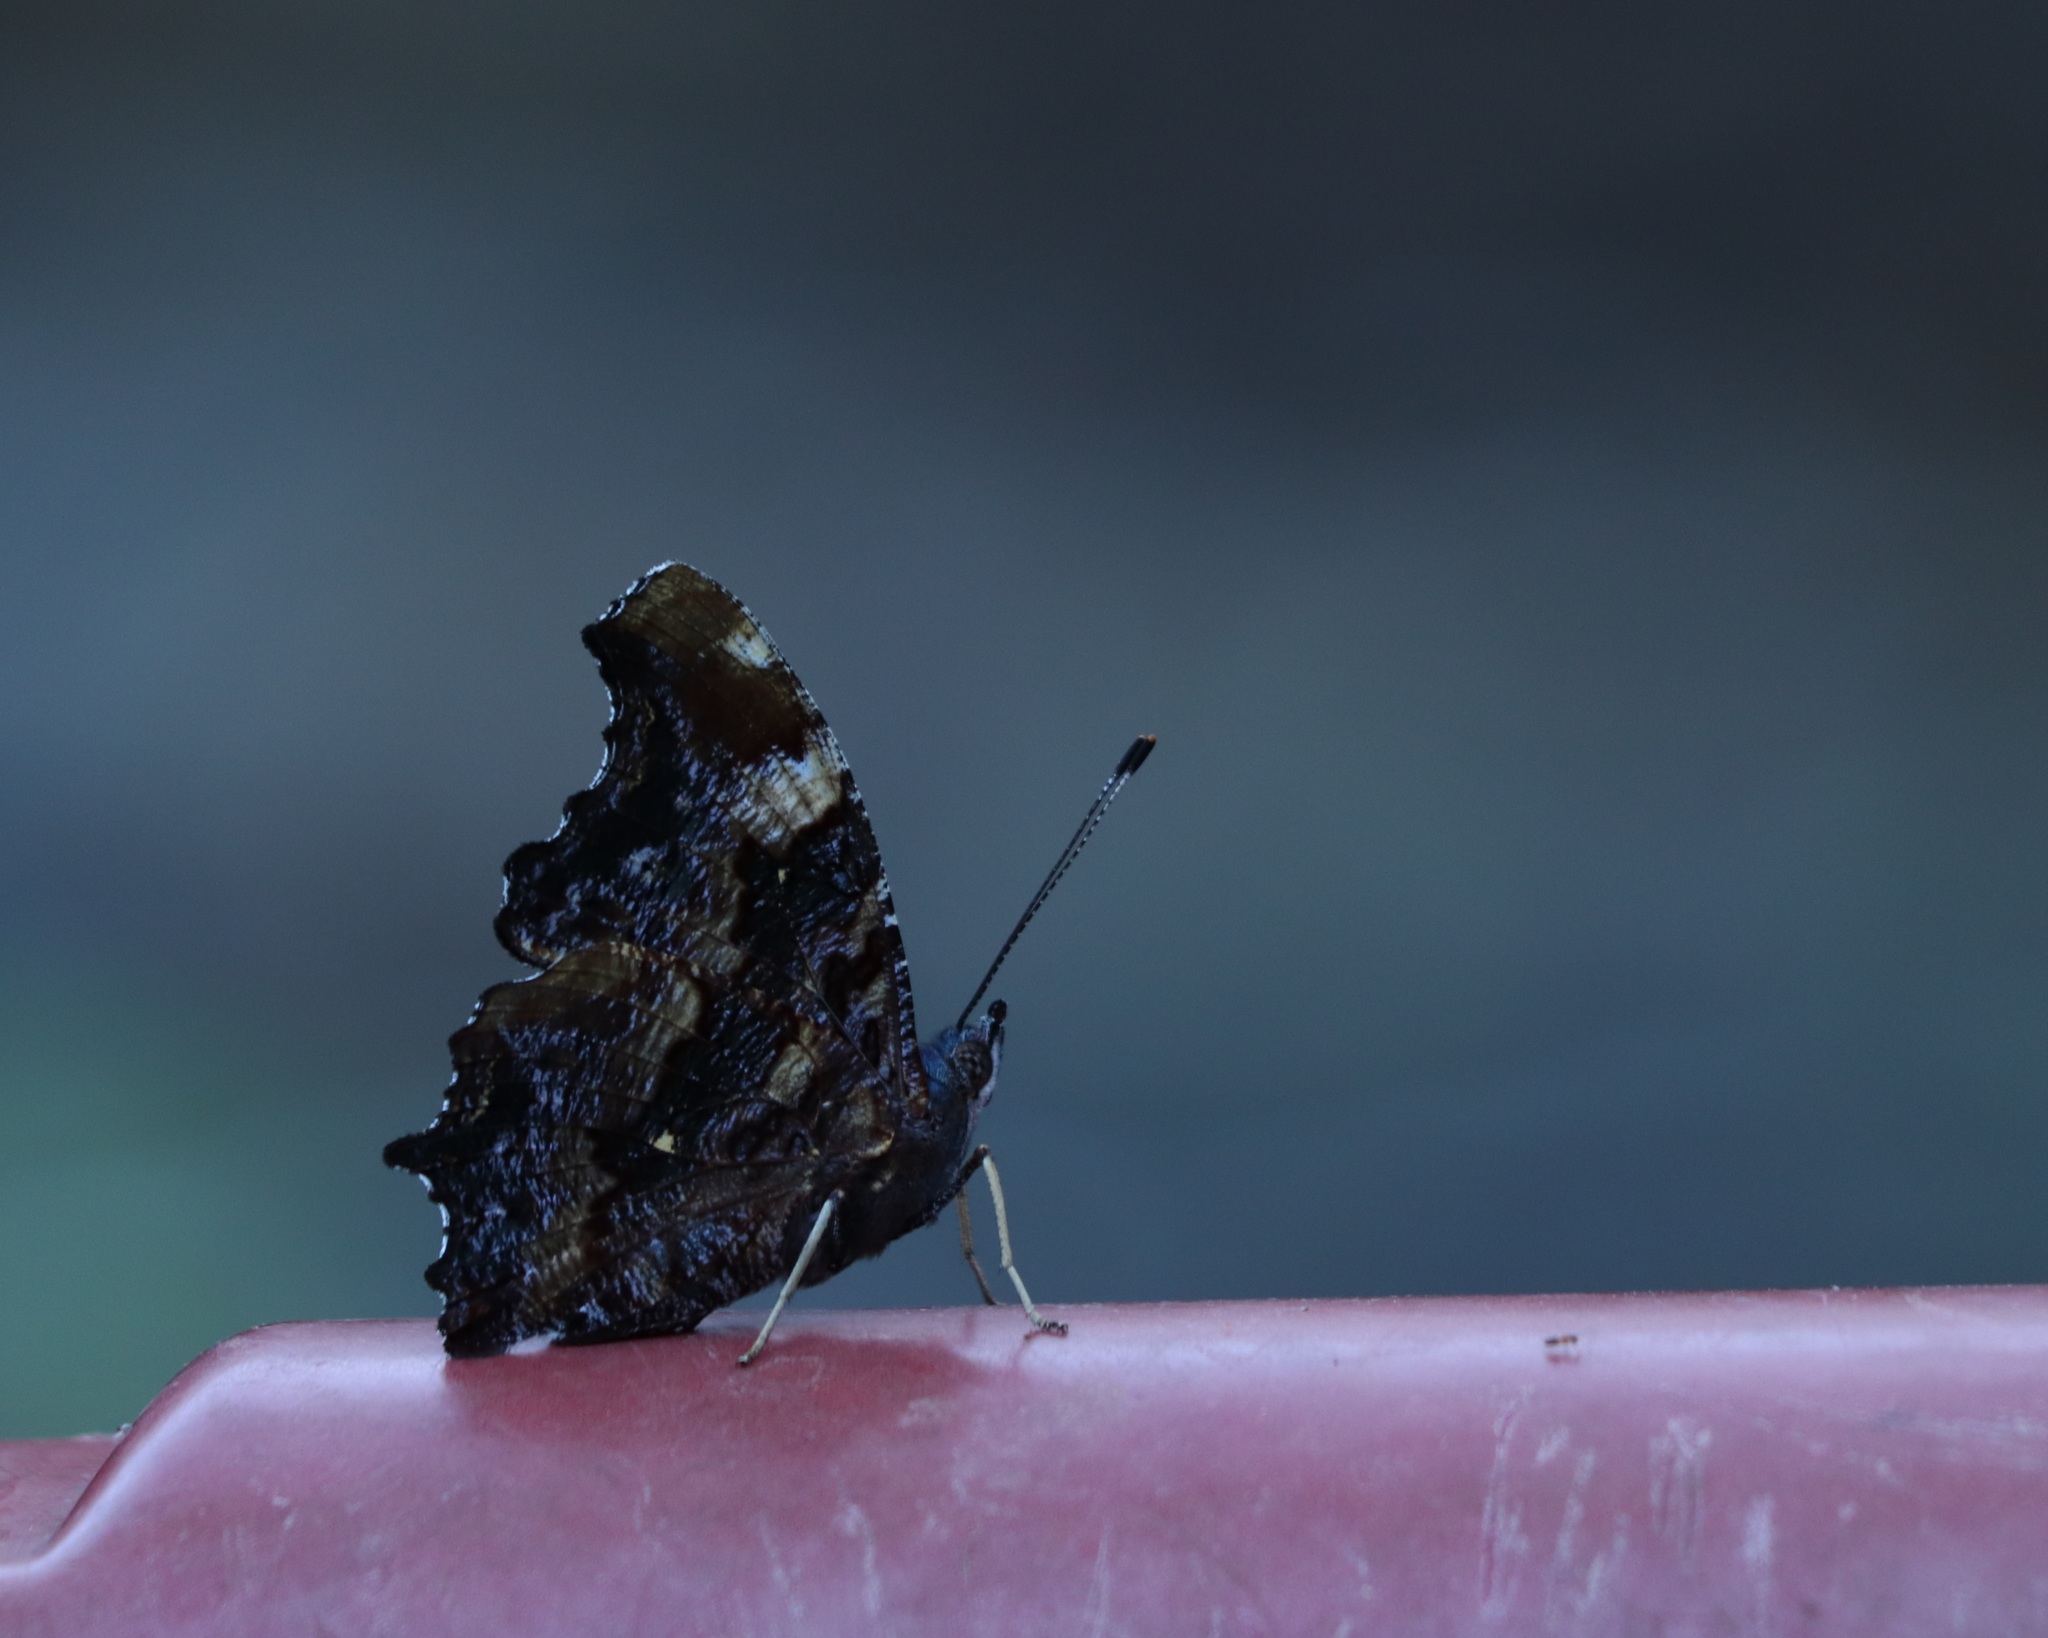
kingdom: Animalia
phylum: Arthropoda
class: Insecta
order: Lepidoptera
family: Nymphalidae
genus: Vanessa
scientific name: Vanessa Kaniska canace
